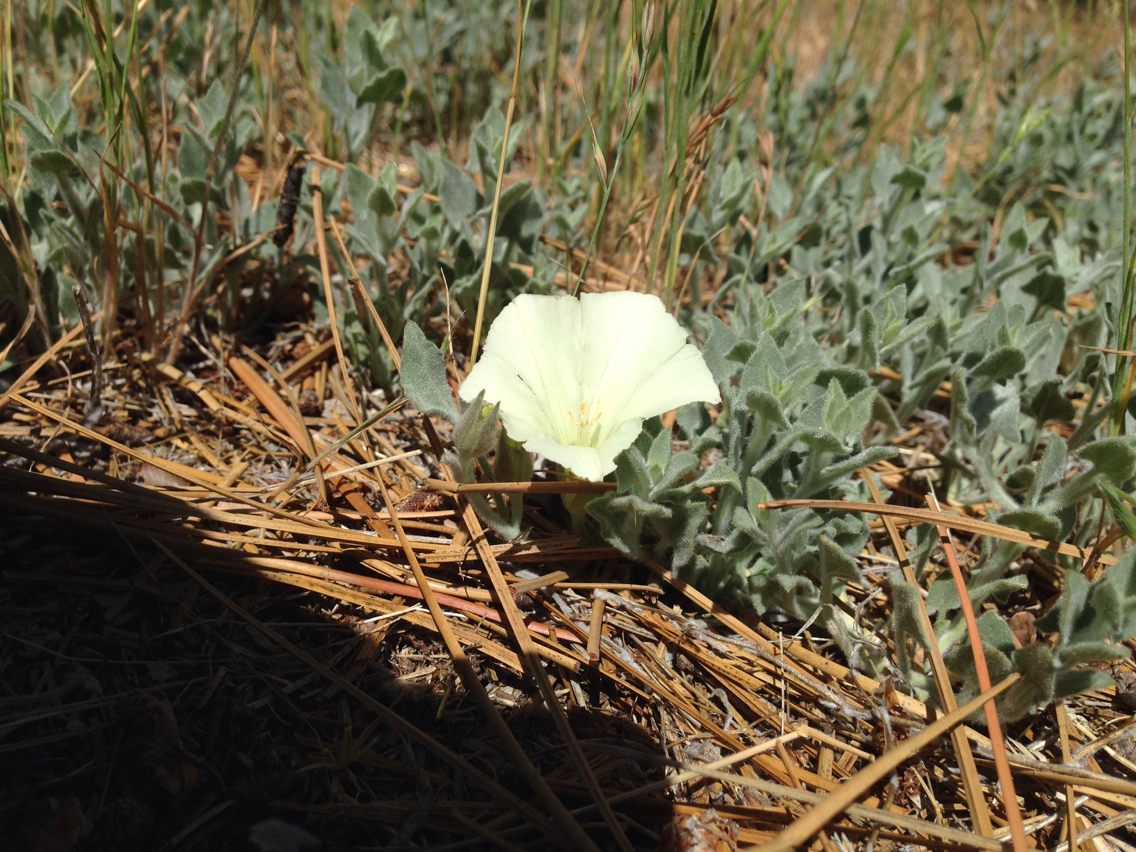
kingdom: Plantae
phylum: Tracheophyta
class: Magnoliopsida
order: Solanales
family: Convolvulaceae
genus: Calystegia
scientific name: Calystegia malacophylla
